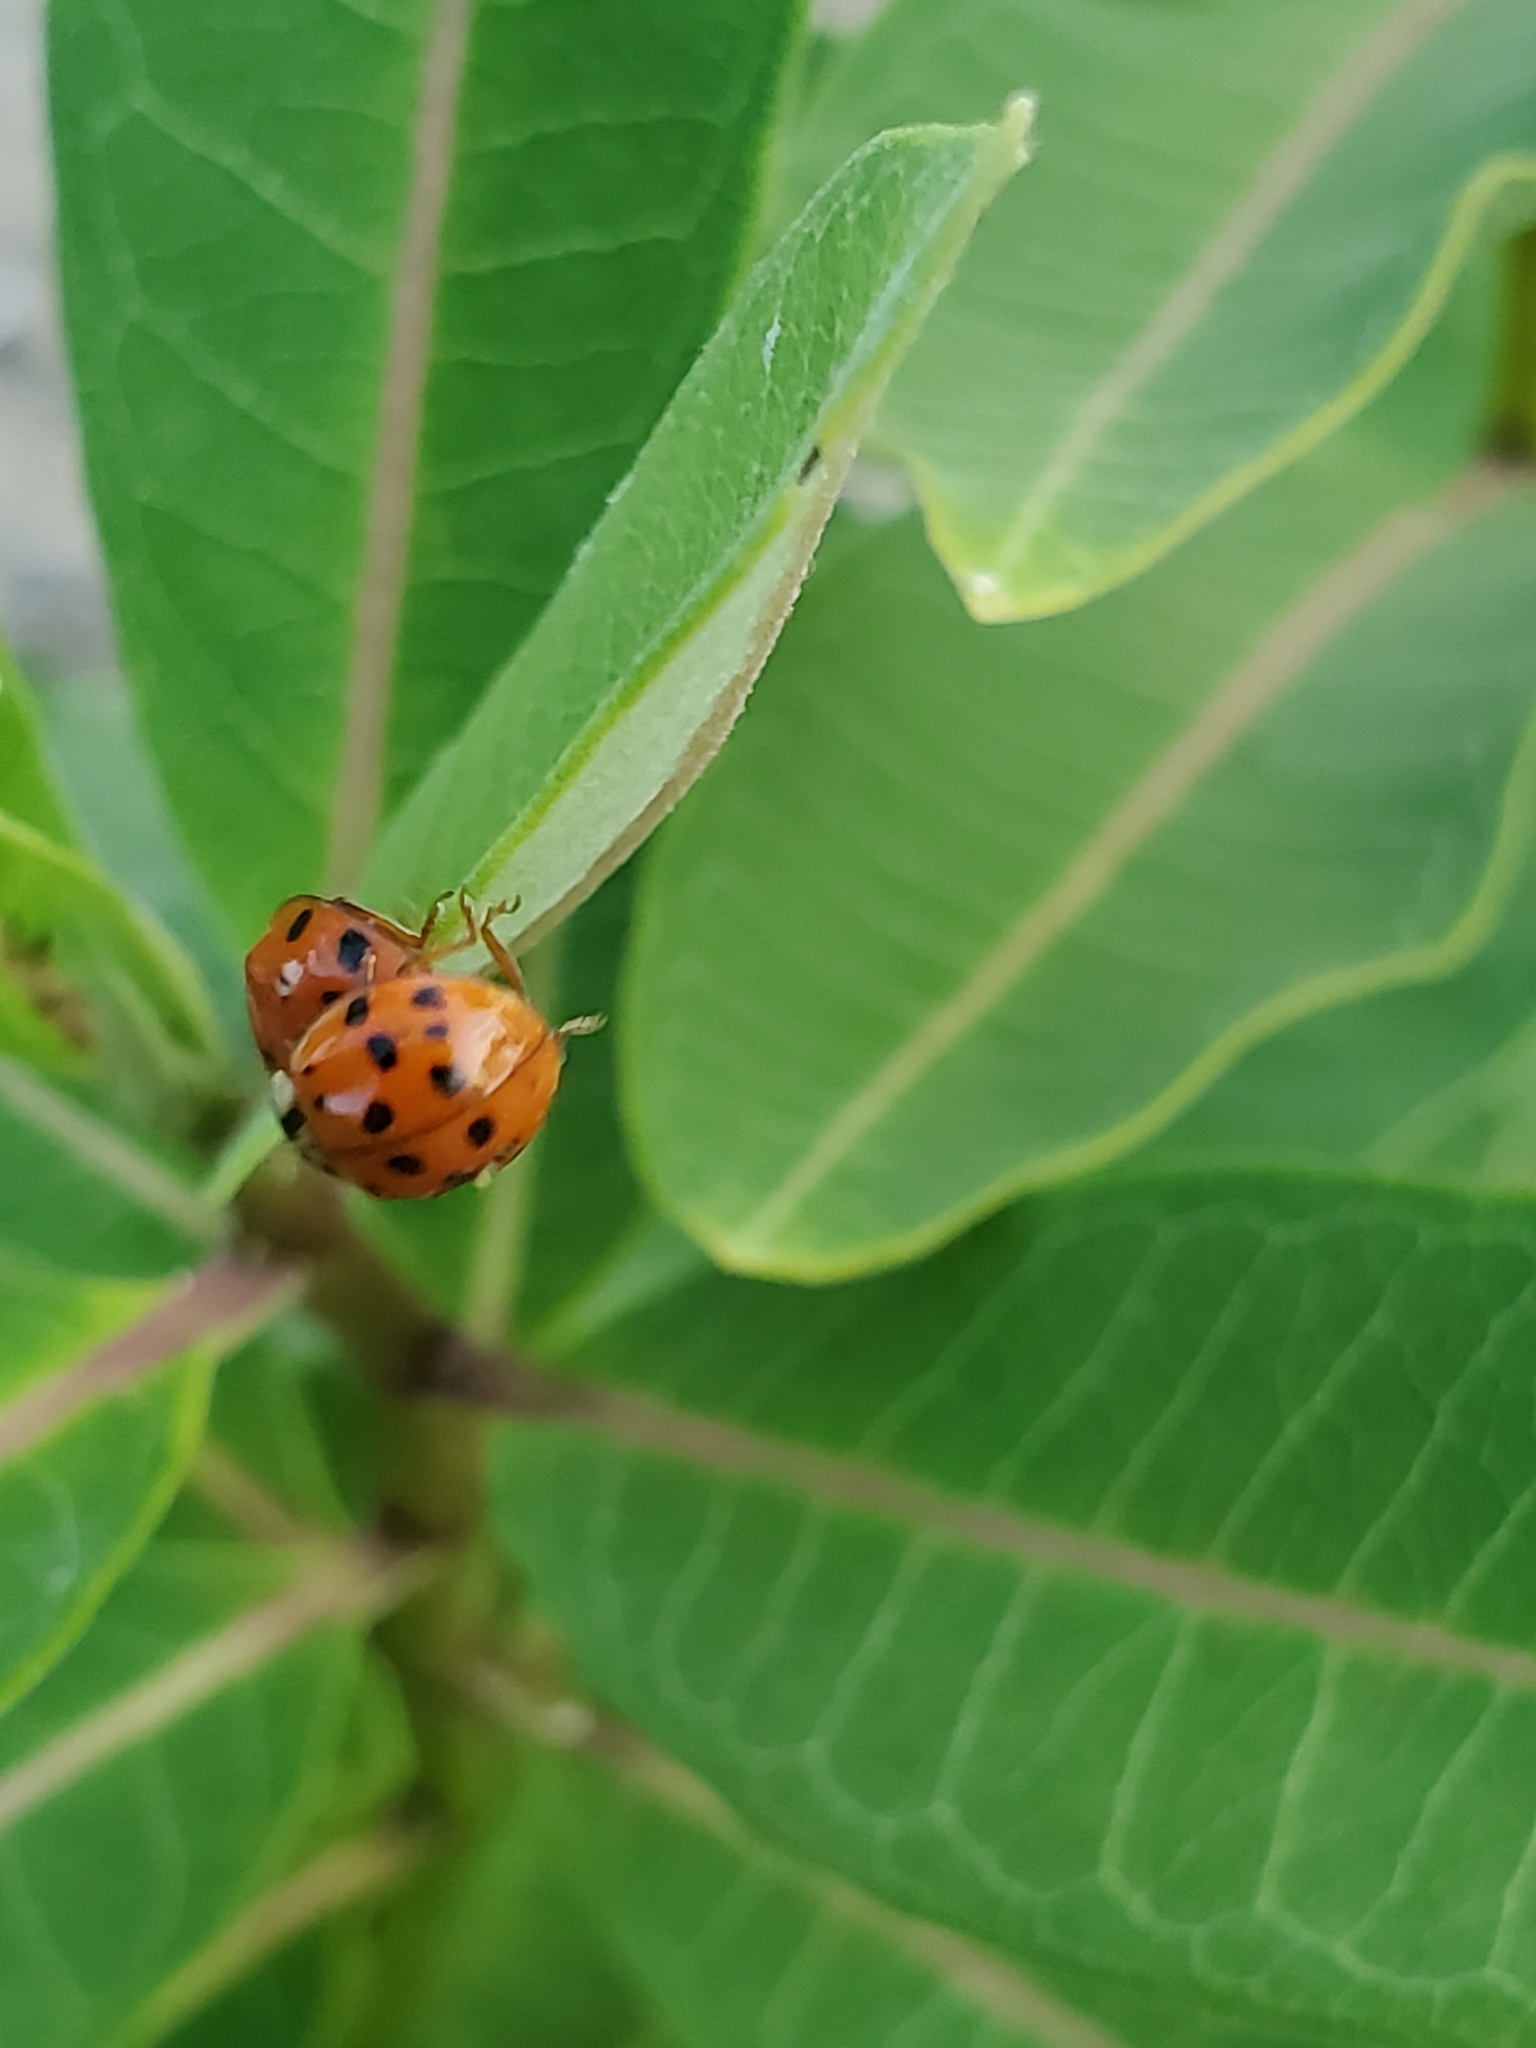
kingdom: Animalia
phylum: Arthropoda
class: Insecta
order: Coleoptera
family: Coccinellidae
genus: Harmonia
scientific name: Harmonia axyridis
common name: Harlequin ladybird
